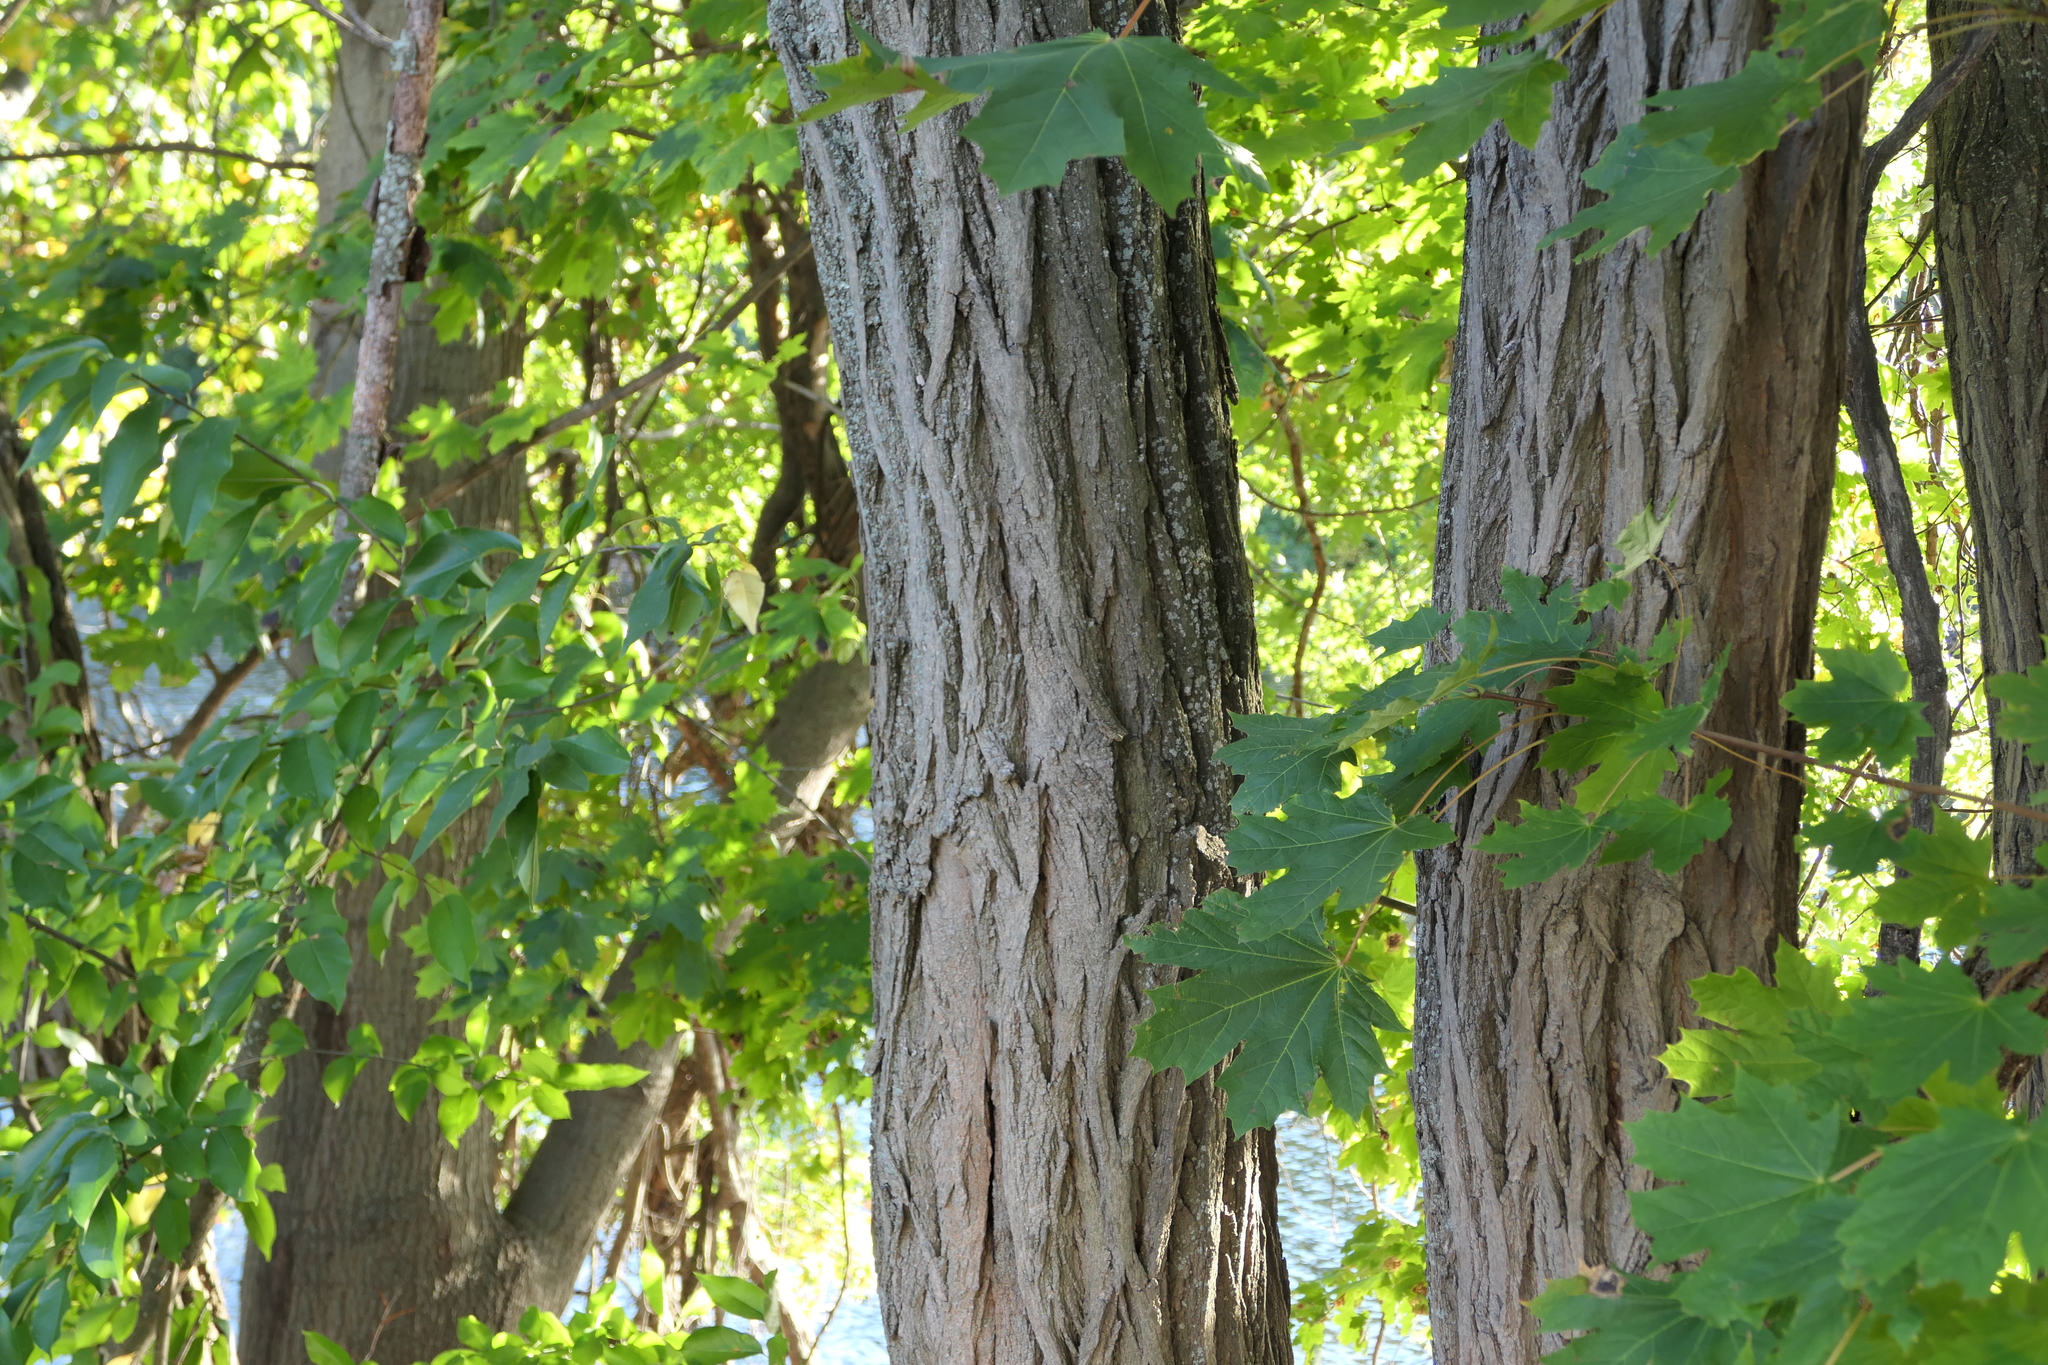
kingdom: Plantae
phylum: Tracheophyta
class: Magnoliopsida
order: Fabales
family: Fabaceae
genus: Robinia
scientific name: Robinia pseudoacacia
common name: Black locust
